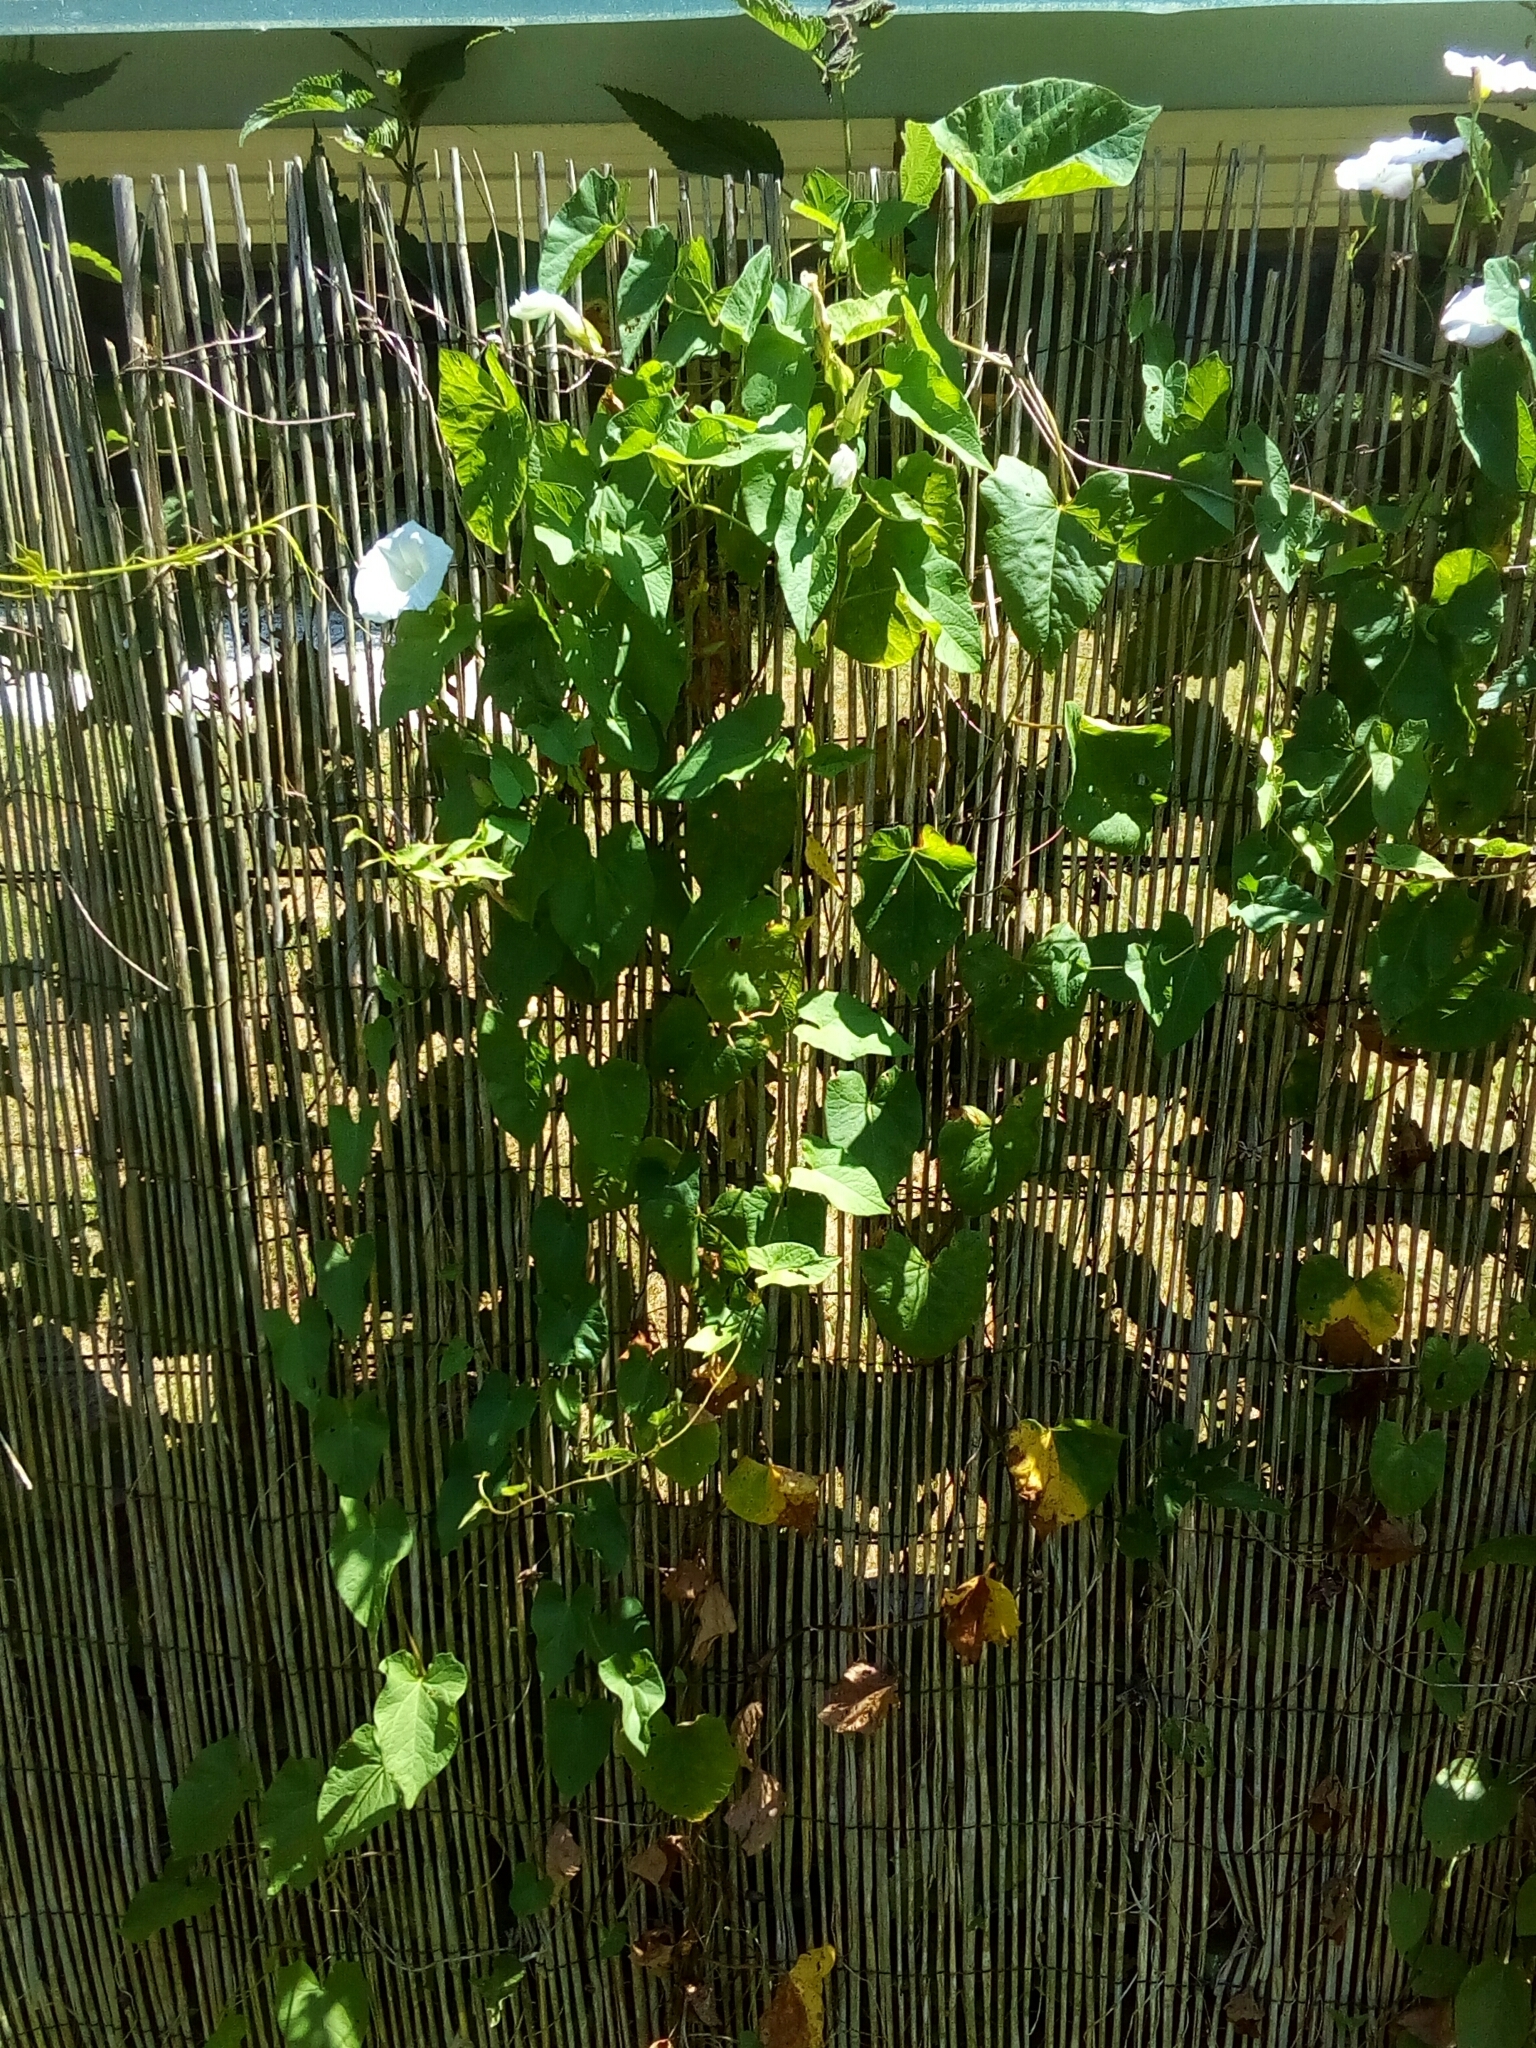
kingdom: Plantae
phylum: Tracheophyta
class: Magnoliopsida
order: Solanales
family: Convolvulaceae
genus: Calystegia
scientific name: Calystegia sepium
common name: Hedge bindweed
